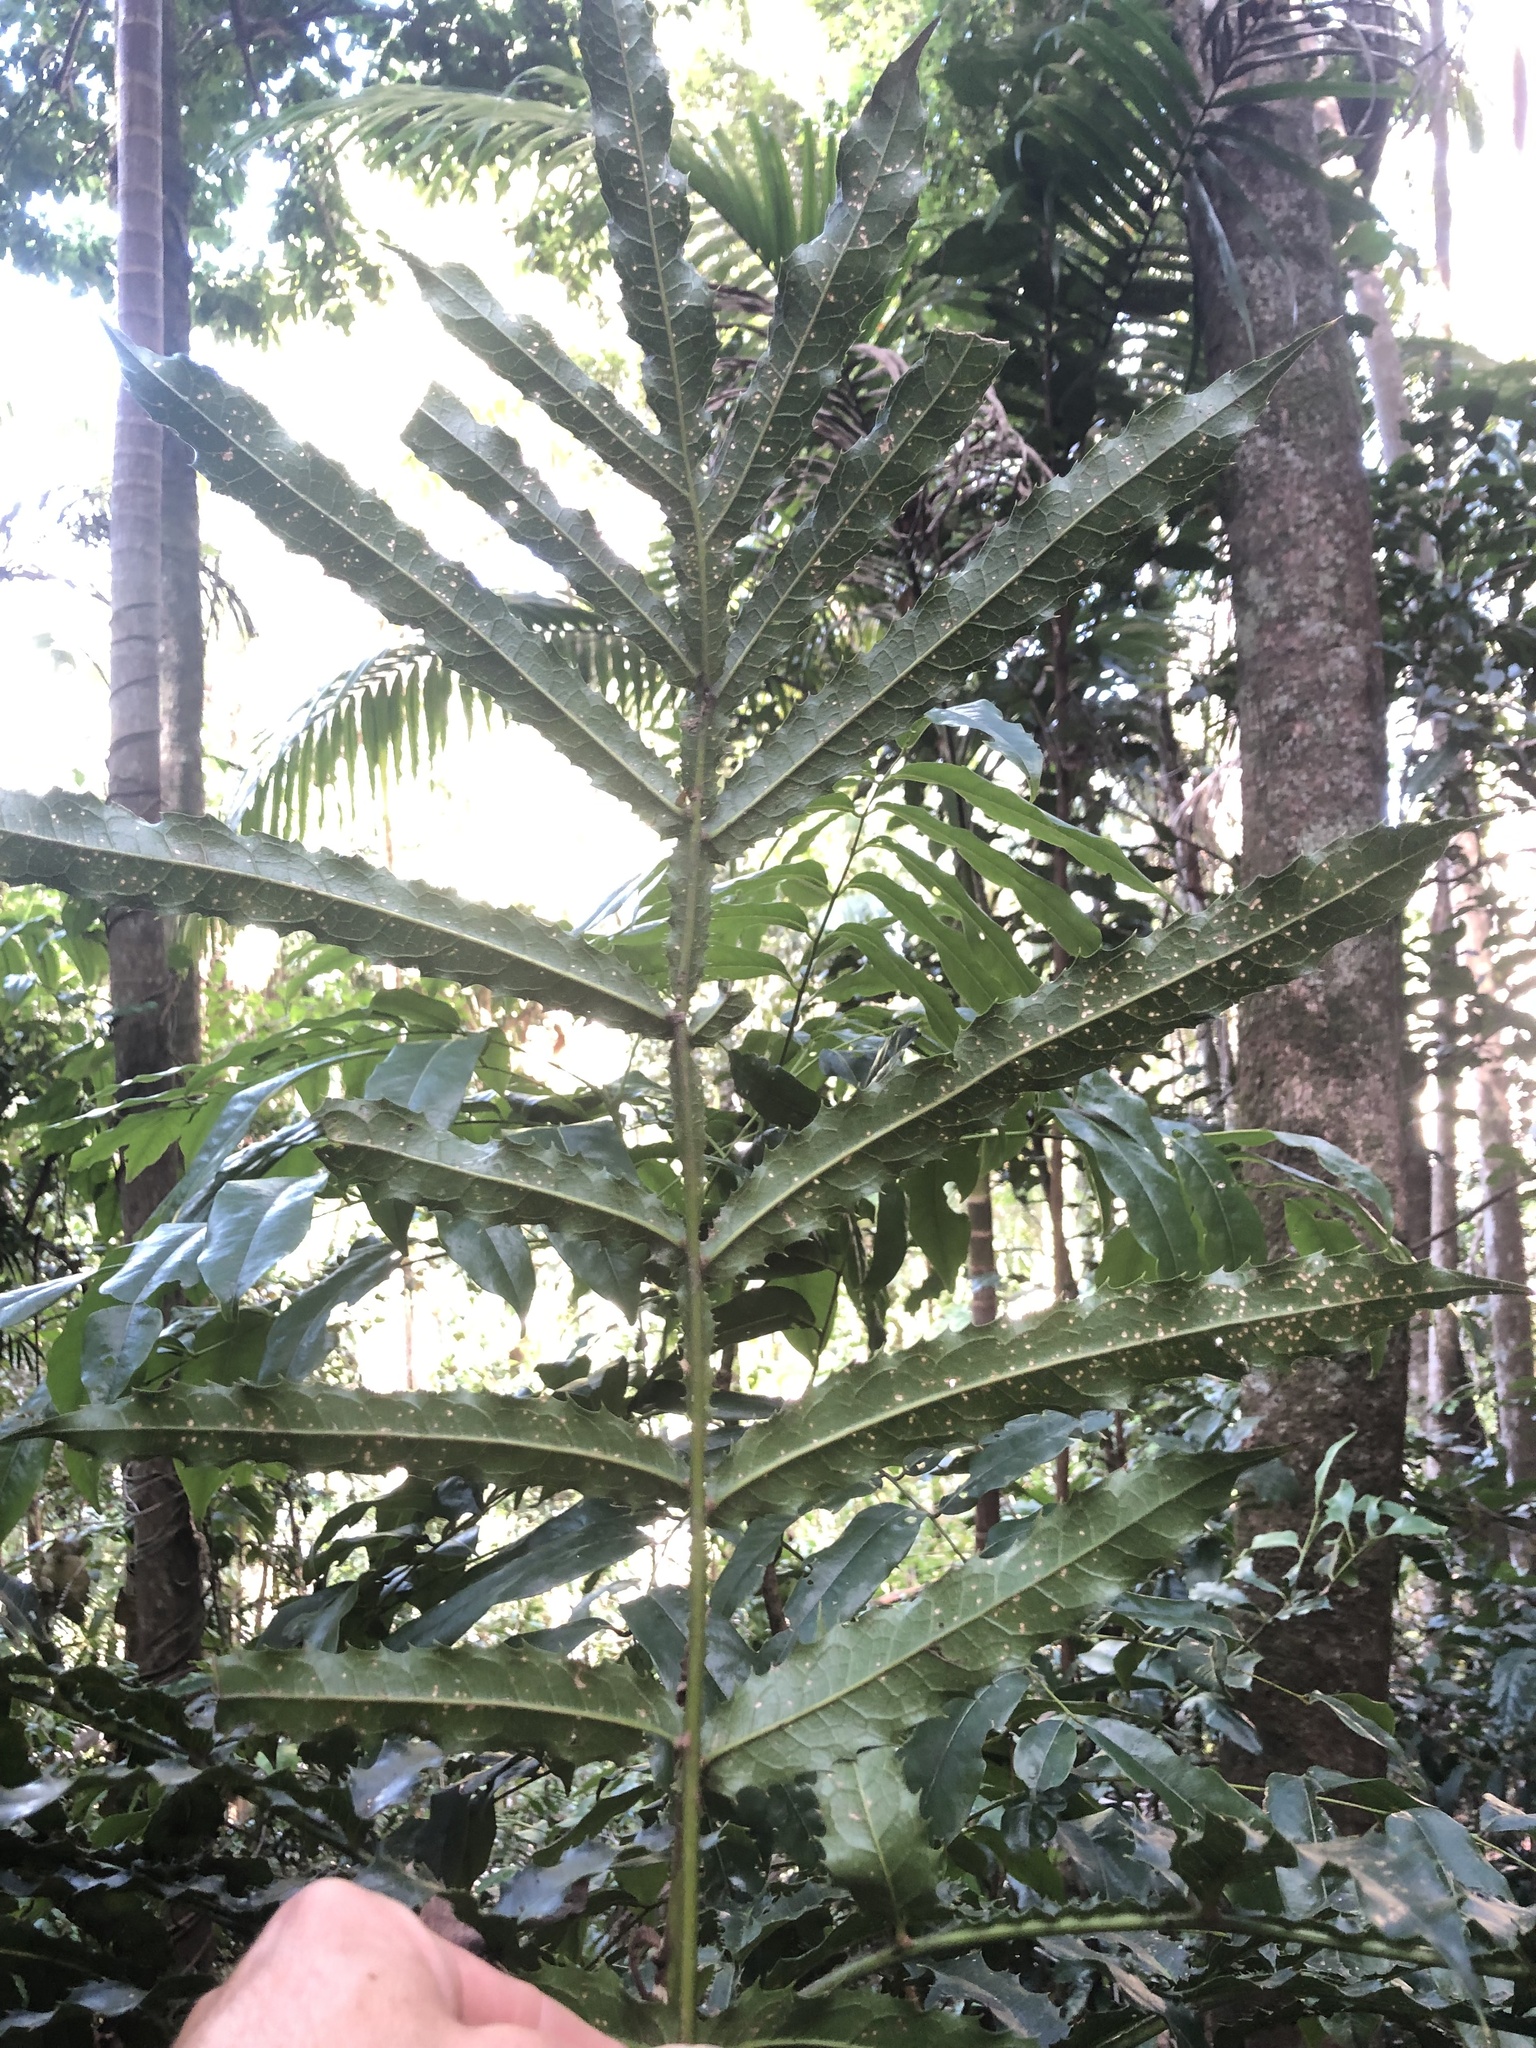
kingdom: Plantae
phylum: Tracheophyta
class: Magnoliopsida
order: Proteales
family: Proteaceae
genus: Hicksbeachia
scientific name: Hicksbeachia pinnatifolia
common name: Beefnut
